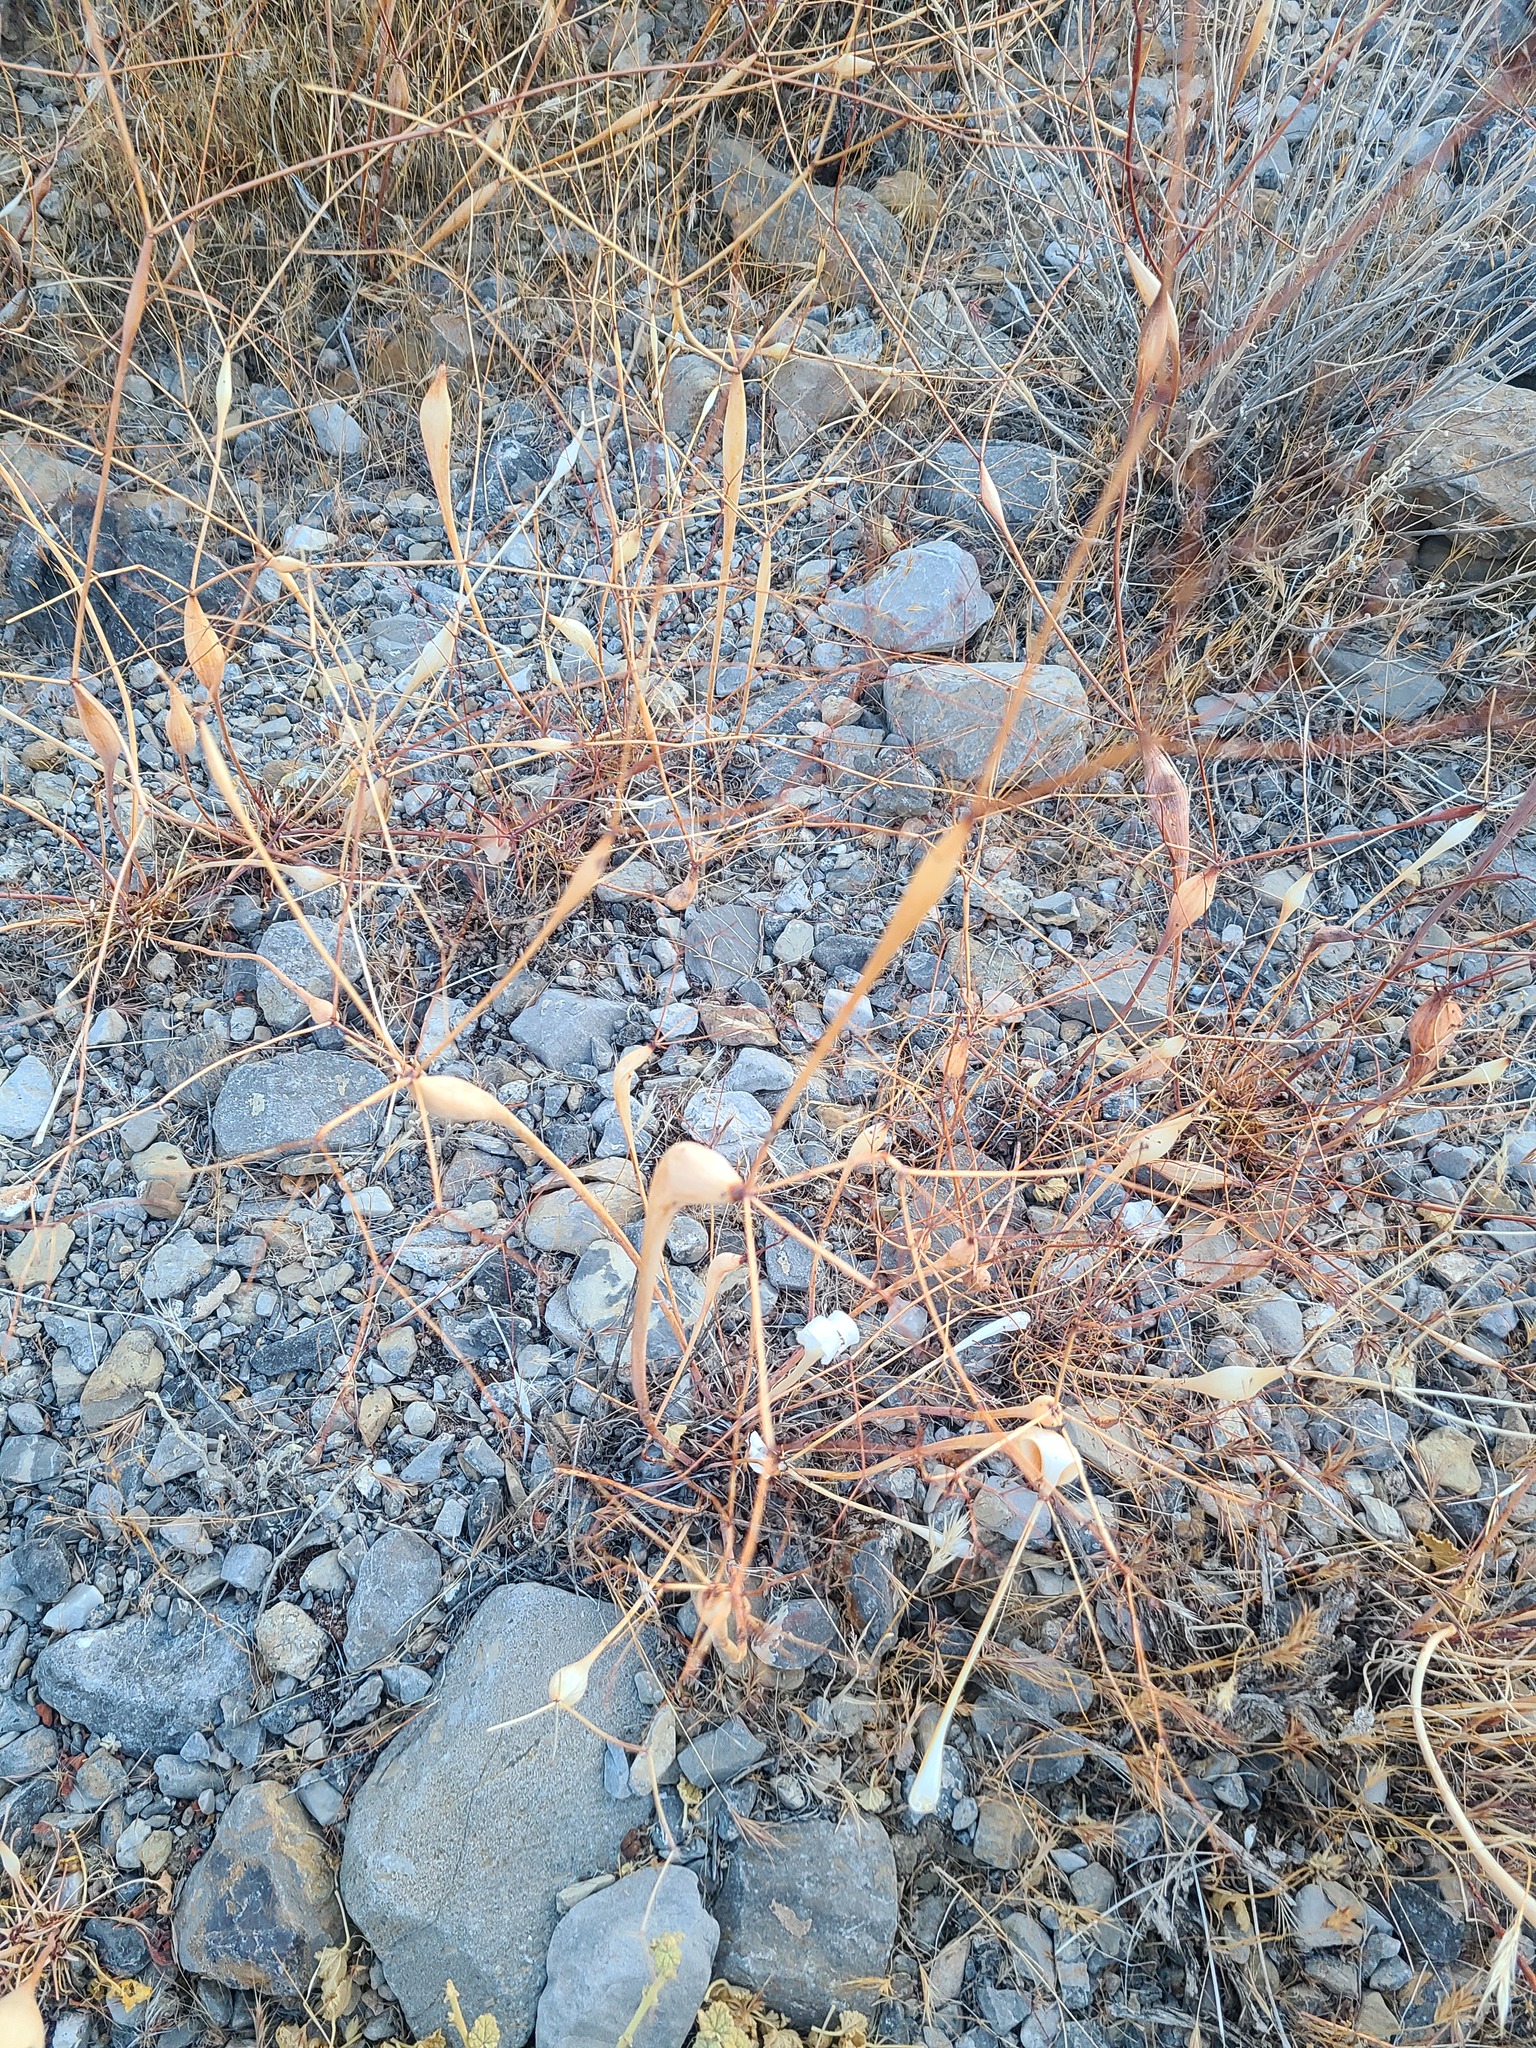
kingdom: Plantae
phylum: Tracheophyta
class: Magnoliopsida
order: Caryophyllales
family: Polygonaceae
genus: Eriogonum
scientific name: Eriogonum inflatum
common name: Desert trumpet
